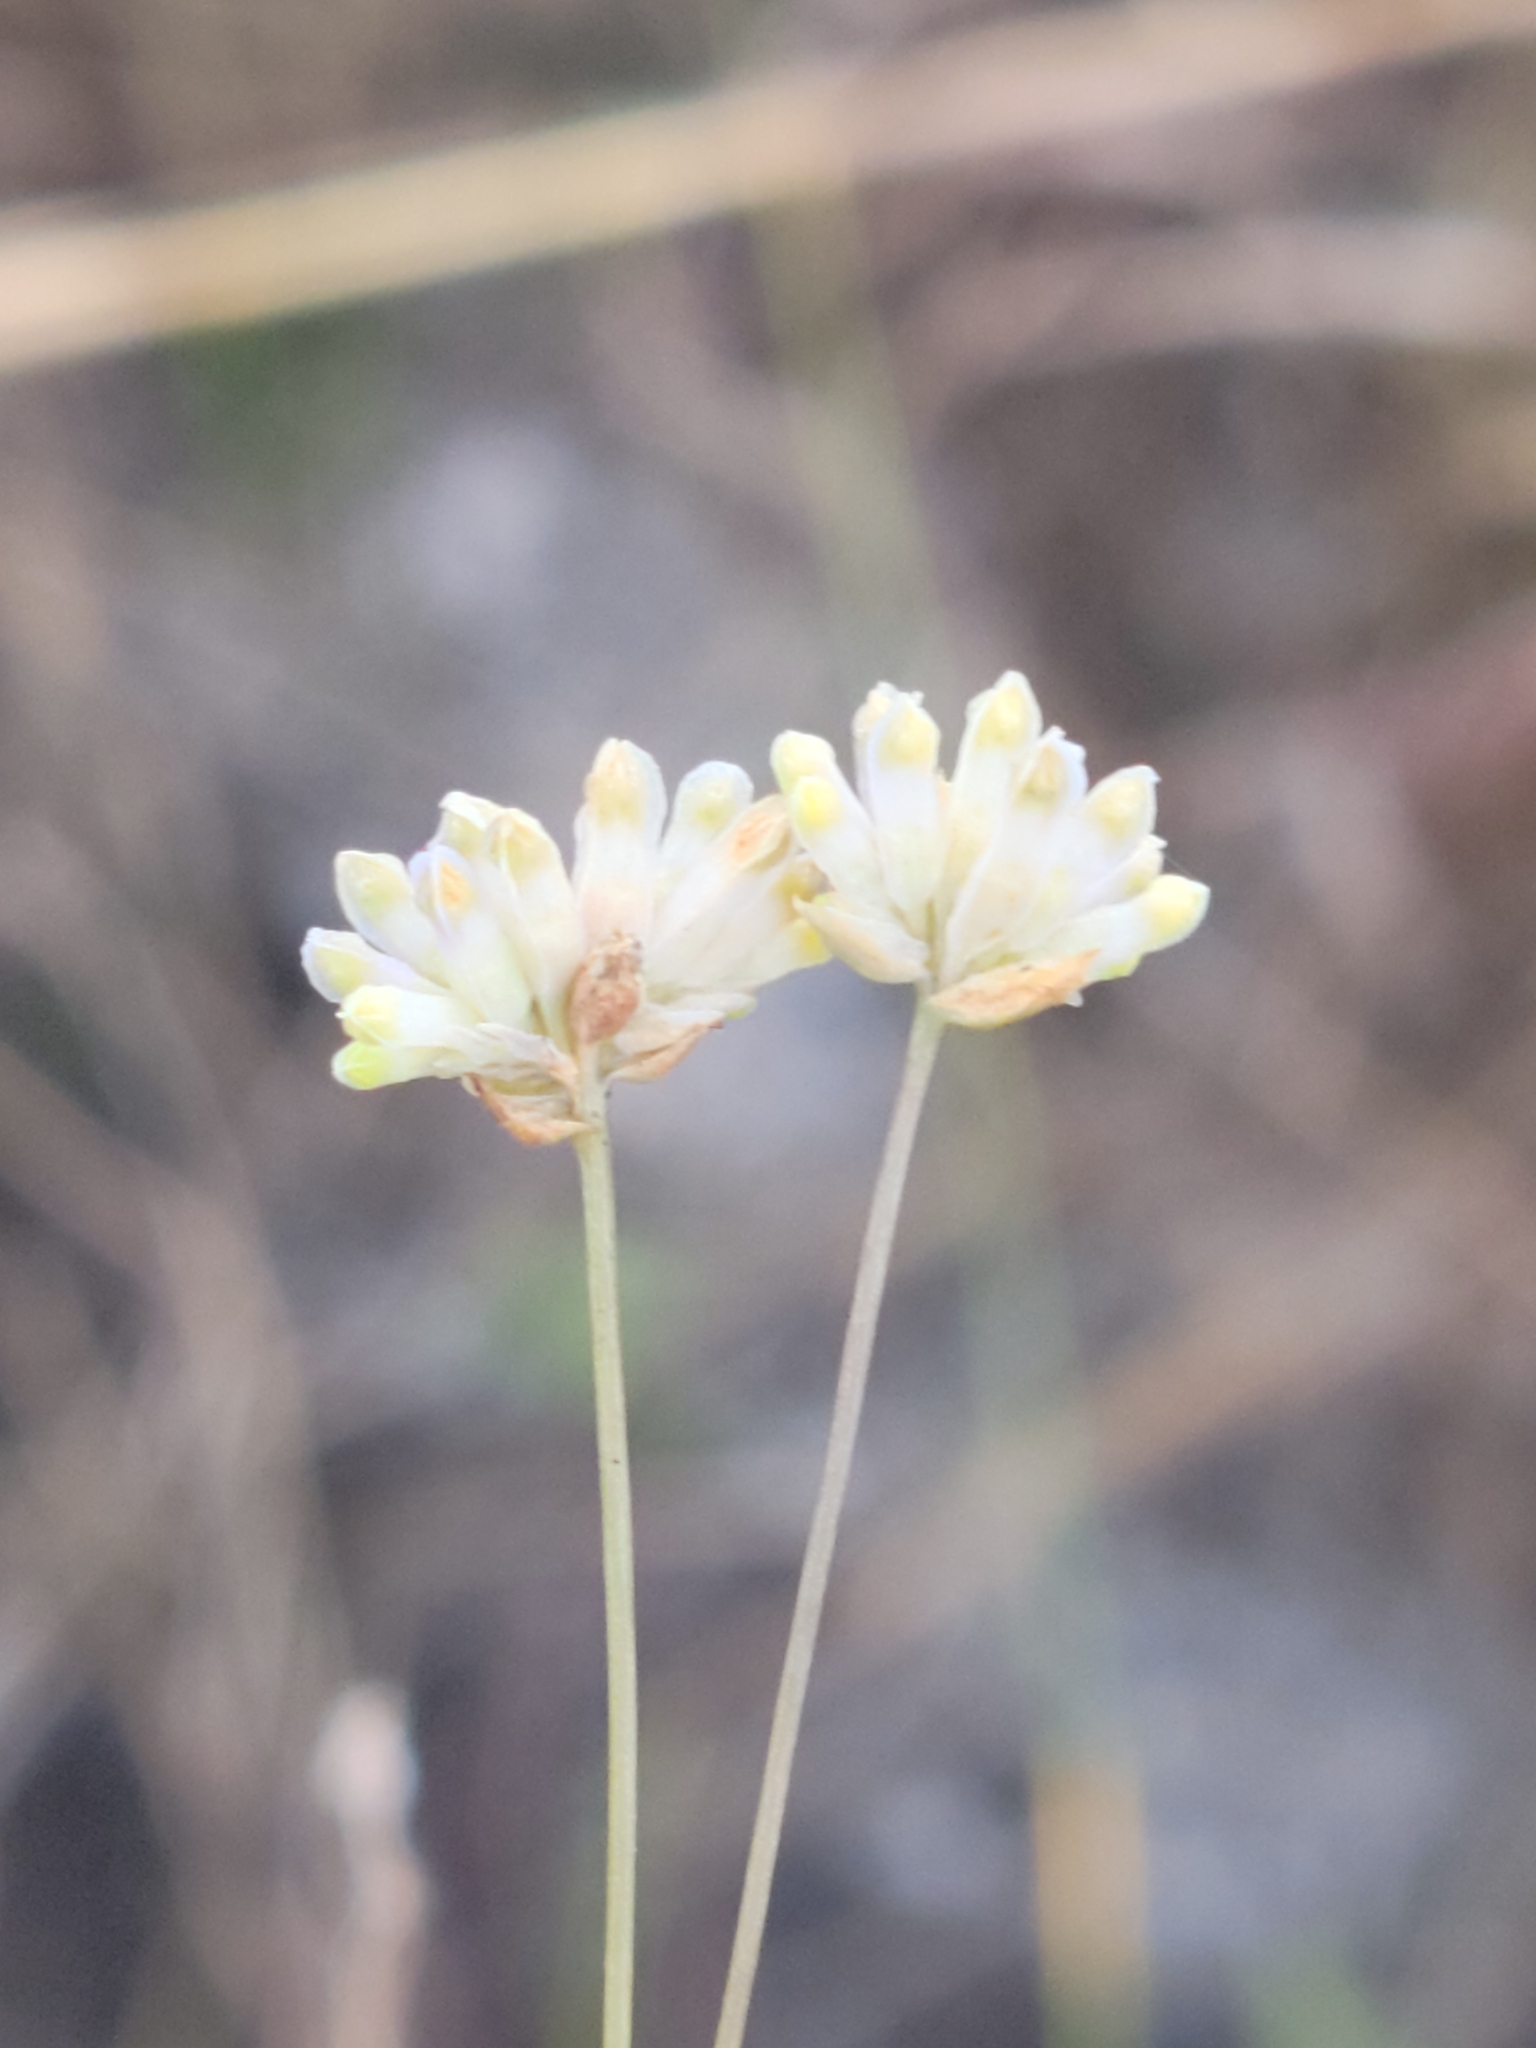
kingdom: Plantae
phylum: Tracheophyta
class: Liliopsida
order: Dioscoreales
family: Burmanniaceae
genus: Burmannia
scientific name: Burmannia capitata
